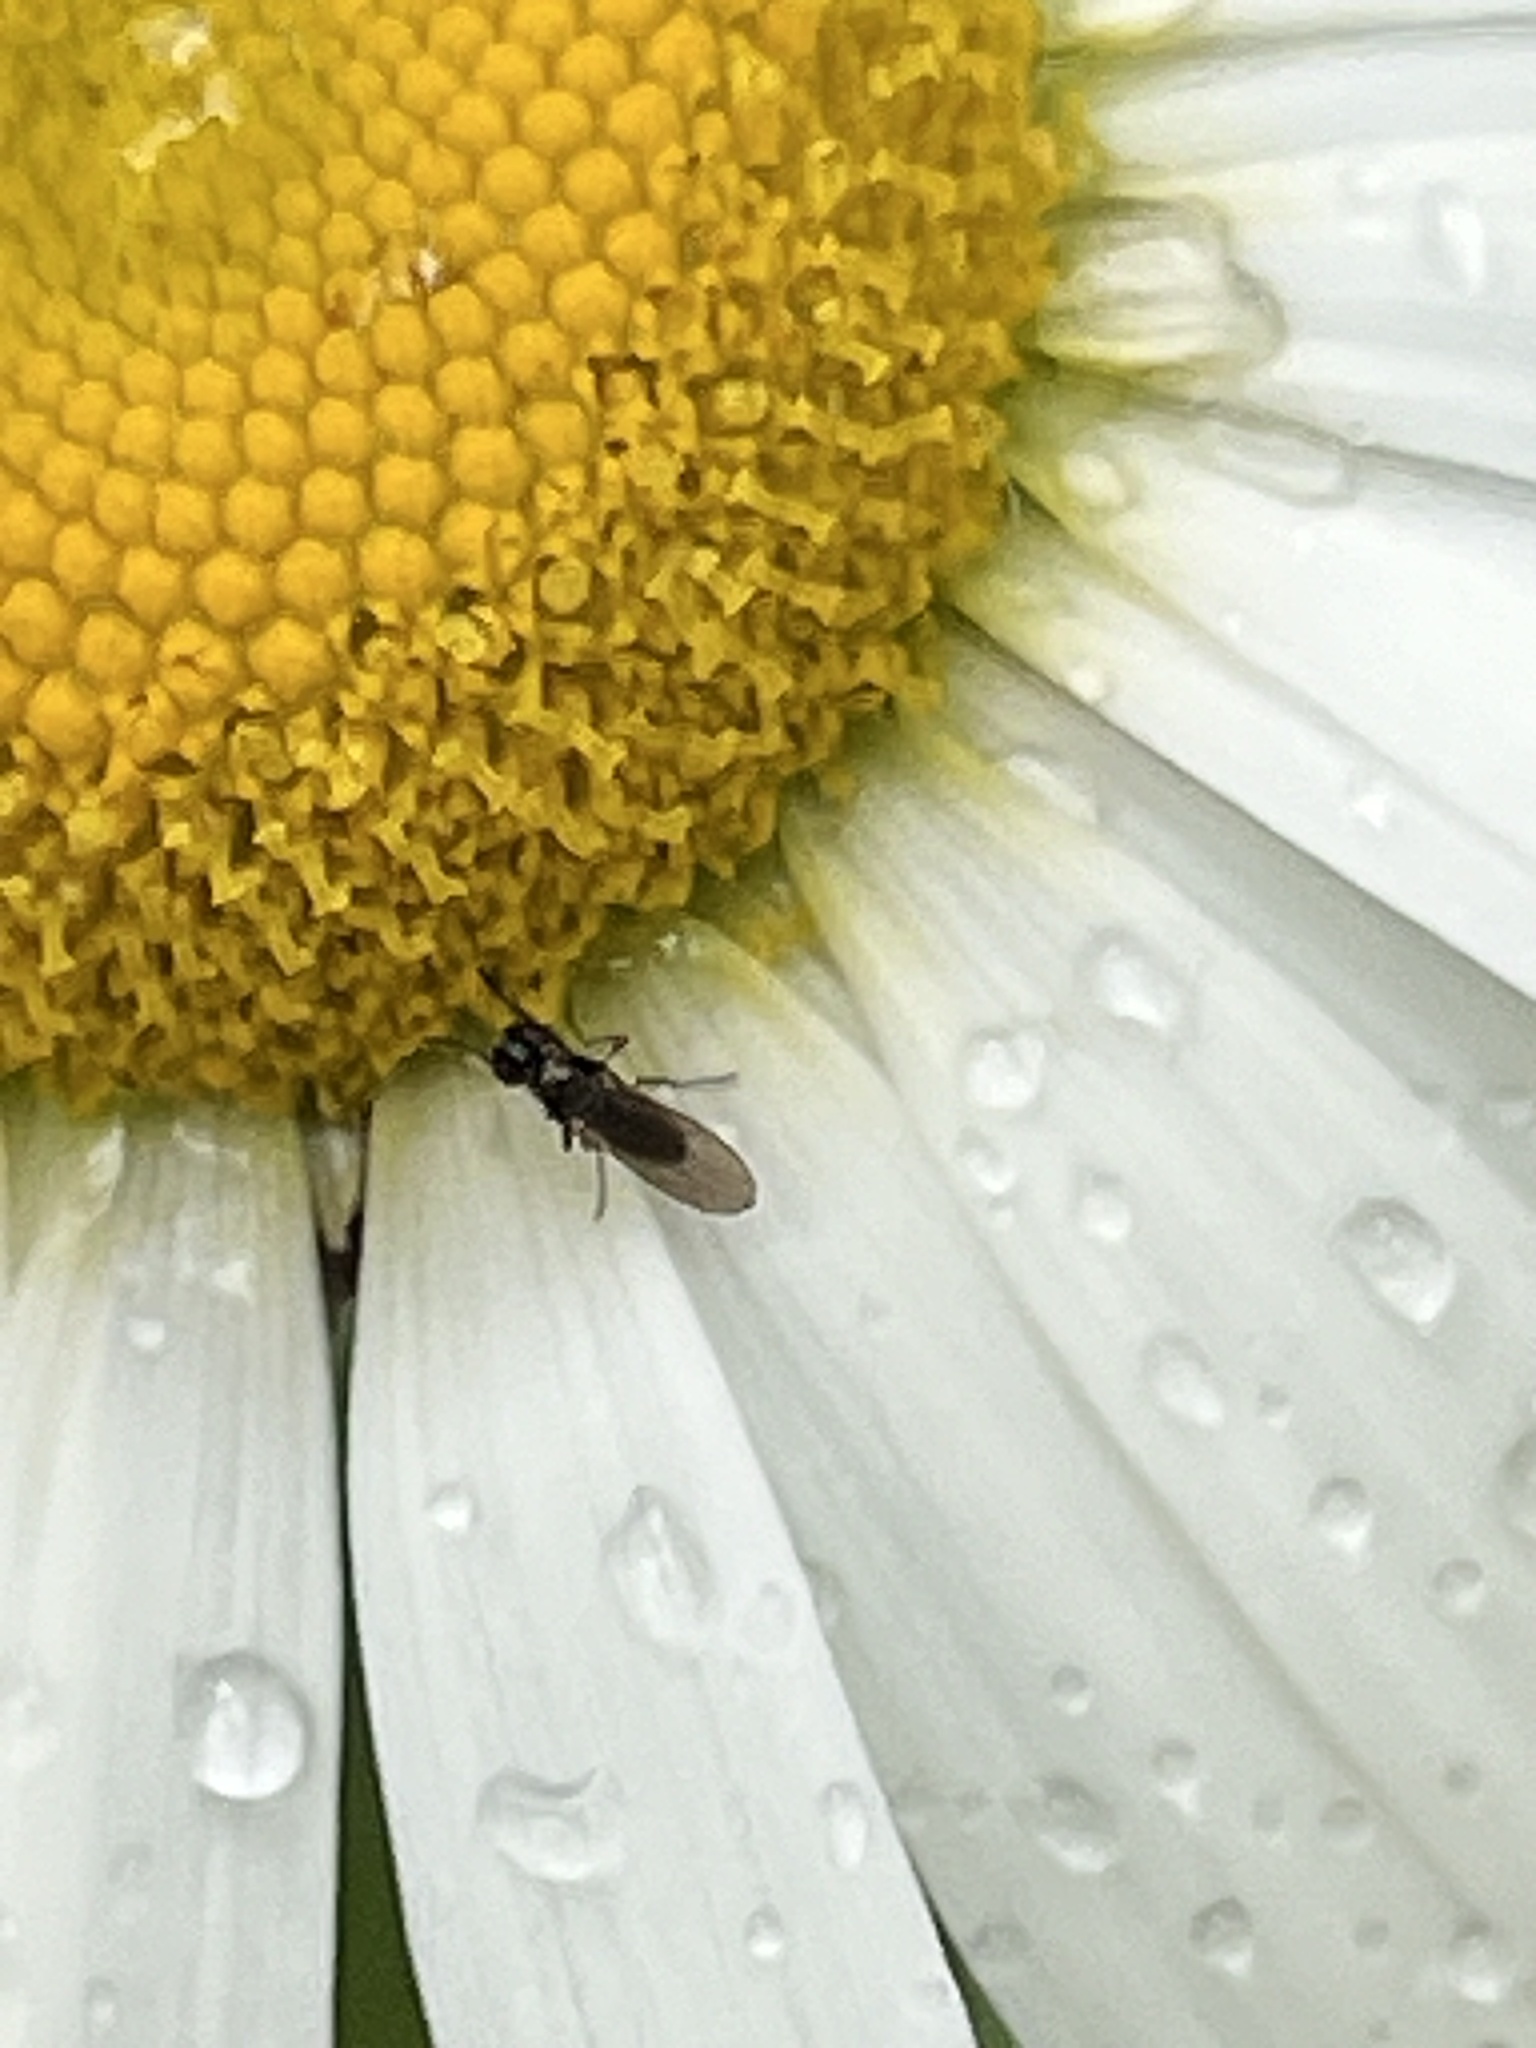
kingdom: Animalia
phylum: Arthropoda
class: Insecta
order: Diptera
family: Ephydridae
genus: Hydrellia
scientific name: Hydrellia tritici
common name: Shore fly
